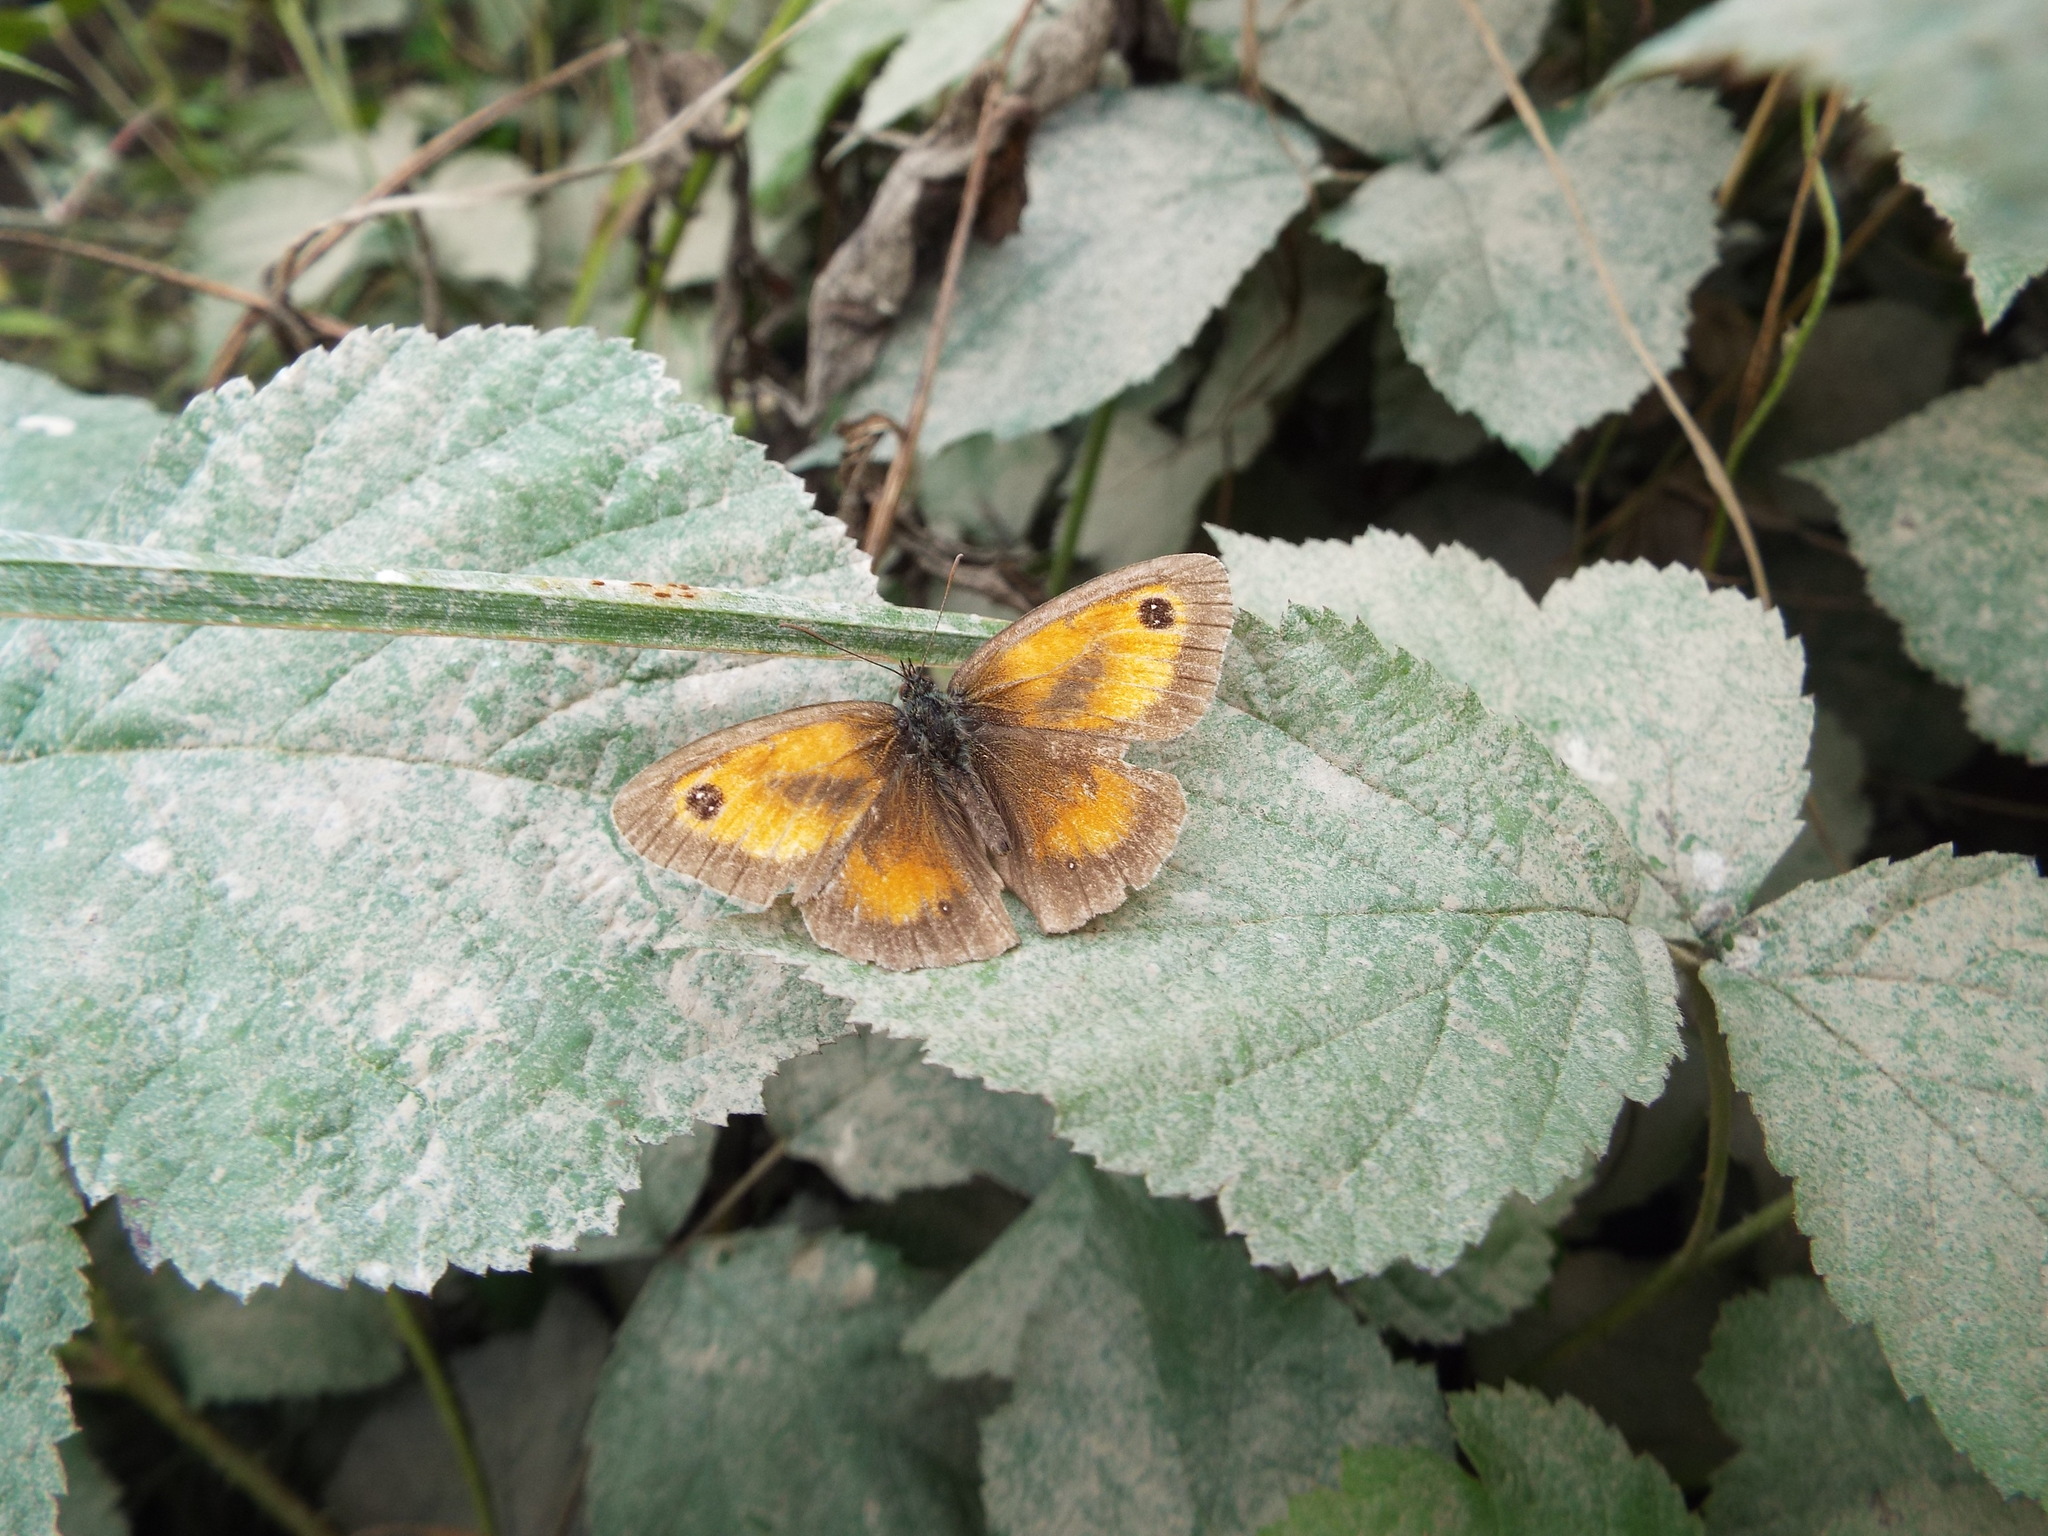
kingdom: Animalia
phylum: Arthropoda
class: Insecta
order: Lepidoptera
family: Nymphalidae
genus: Pyronia
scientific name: Pyronia tithonus
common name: Gatekeeper
